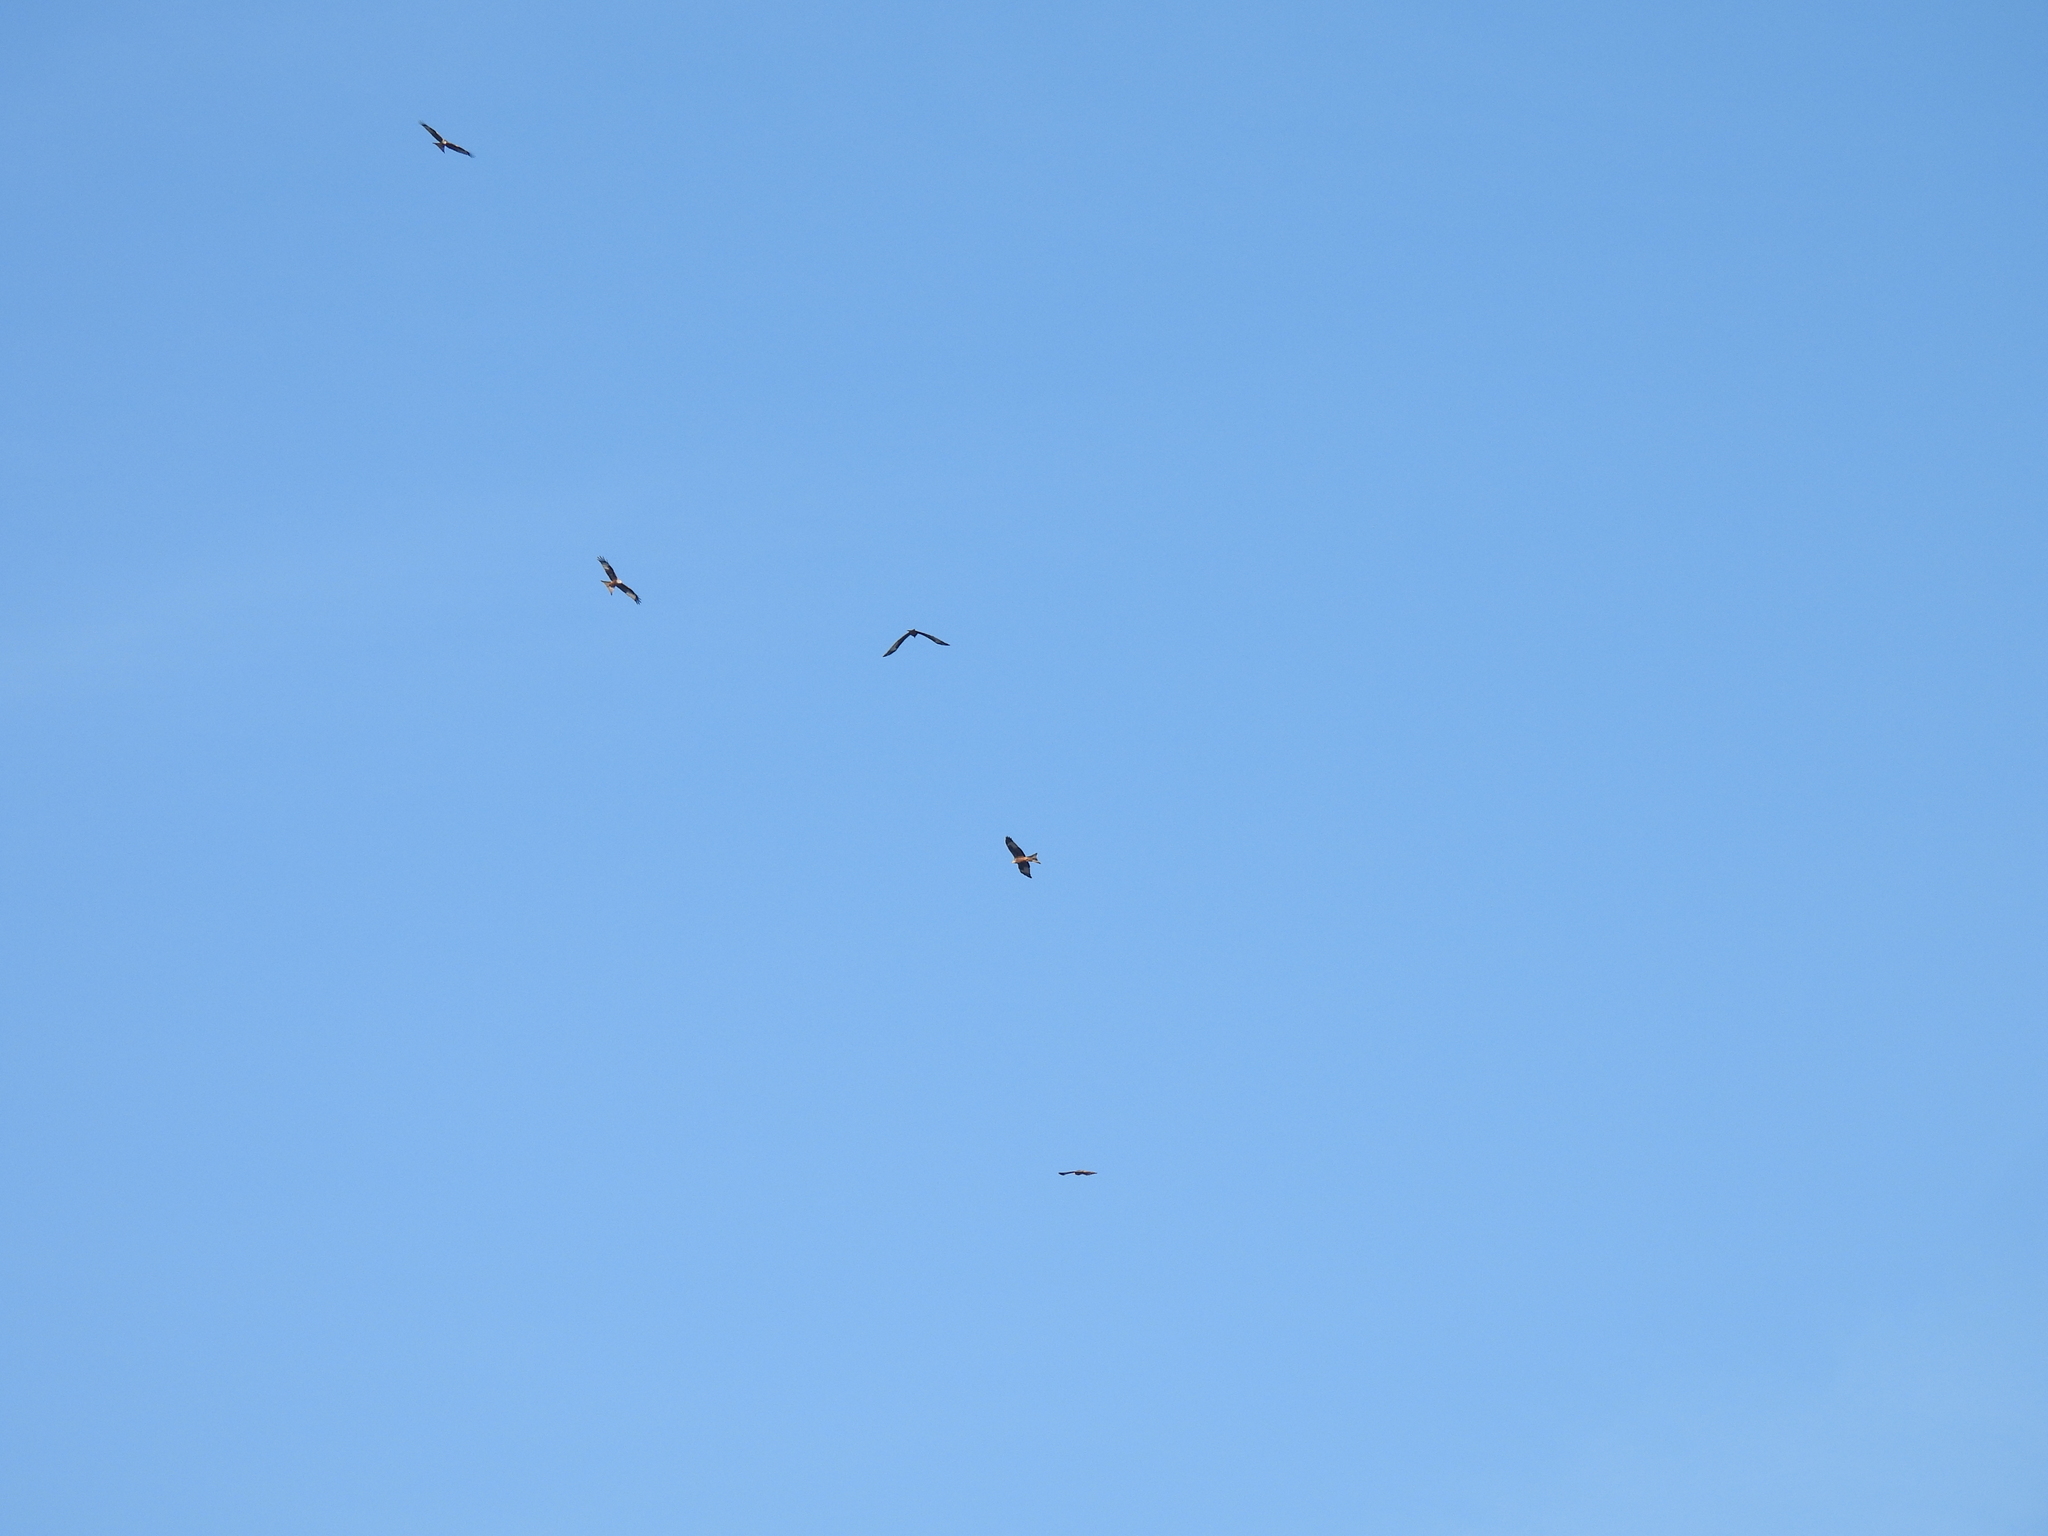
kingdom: Animalia
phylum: Chordata
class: Aves
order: Accipitriformes
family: Accipitridae
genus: Milvus
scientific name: Milvus milvus
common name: Red kite
